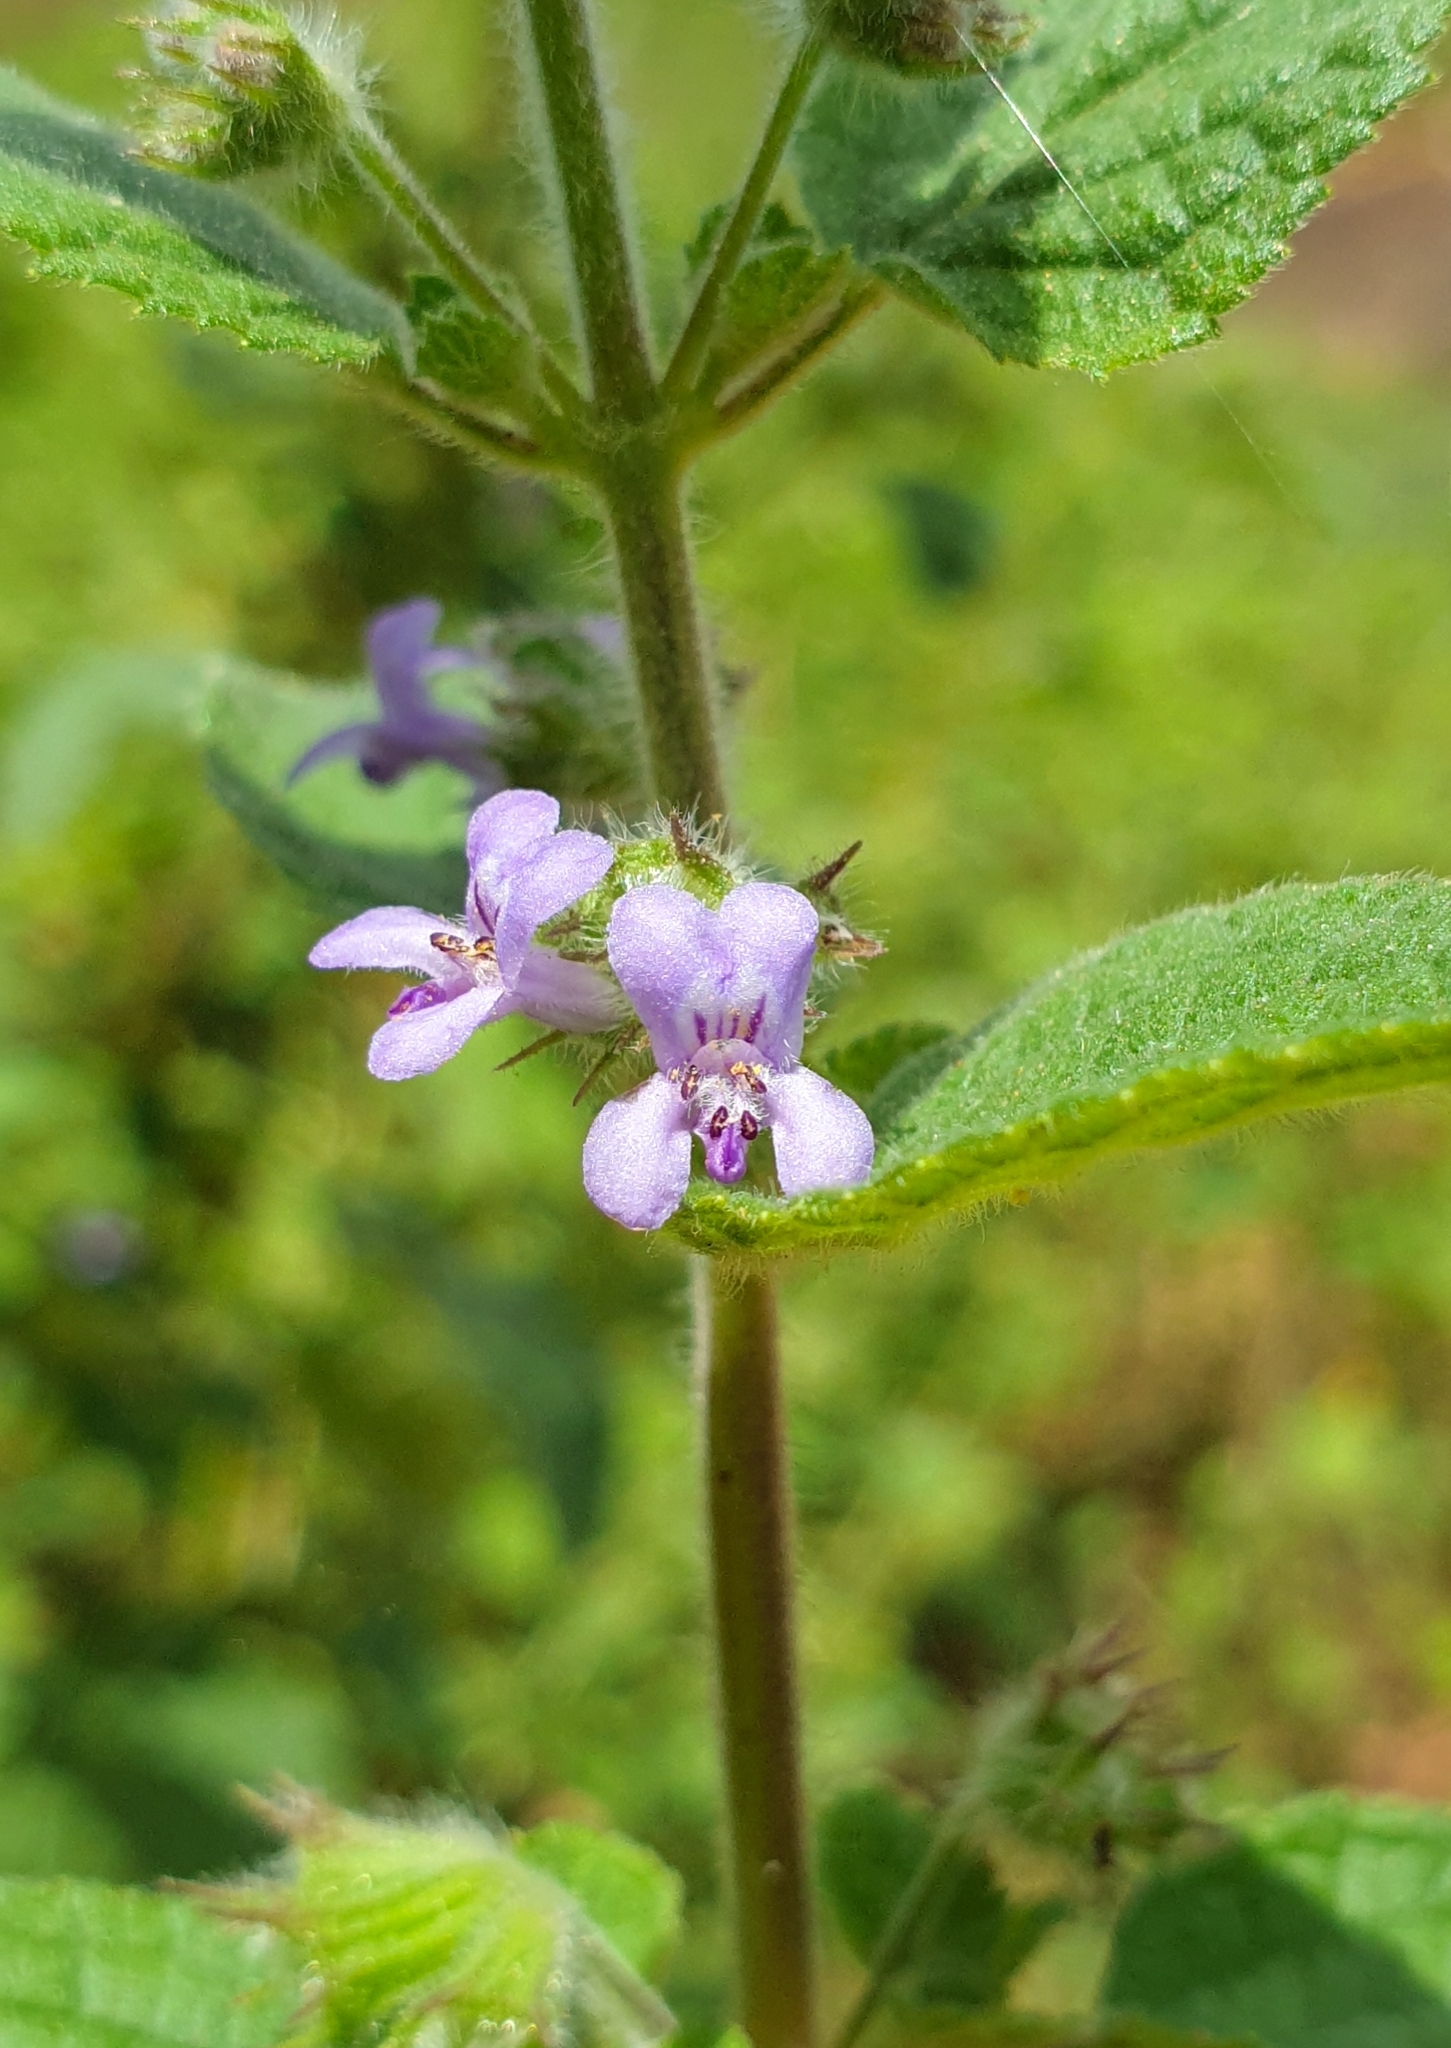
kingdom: Plantae
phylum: Tracheophyta
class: Magnoliopsida
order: Lamiales
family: Lamiaceae
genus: Mesosphaerum
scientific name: Mesosphaerum suaveolens
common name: Pignut
